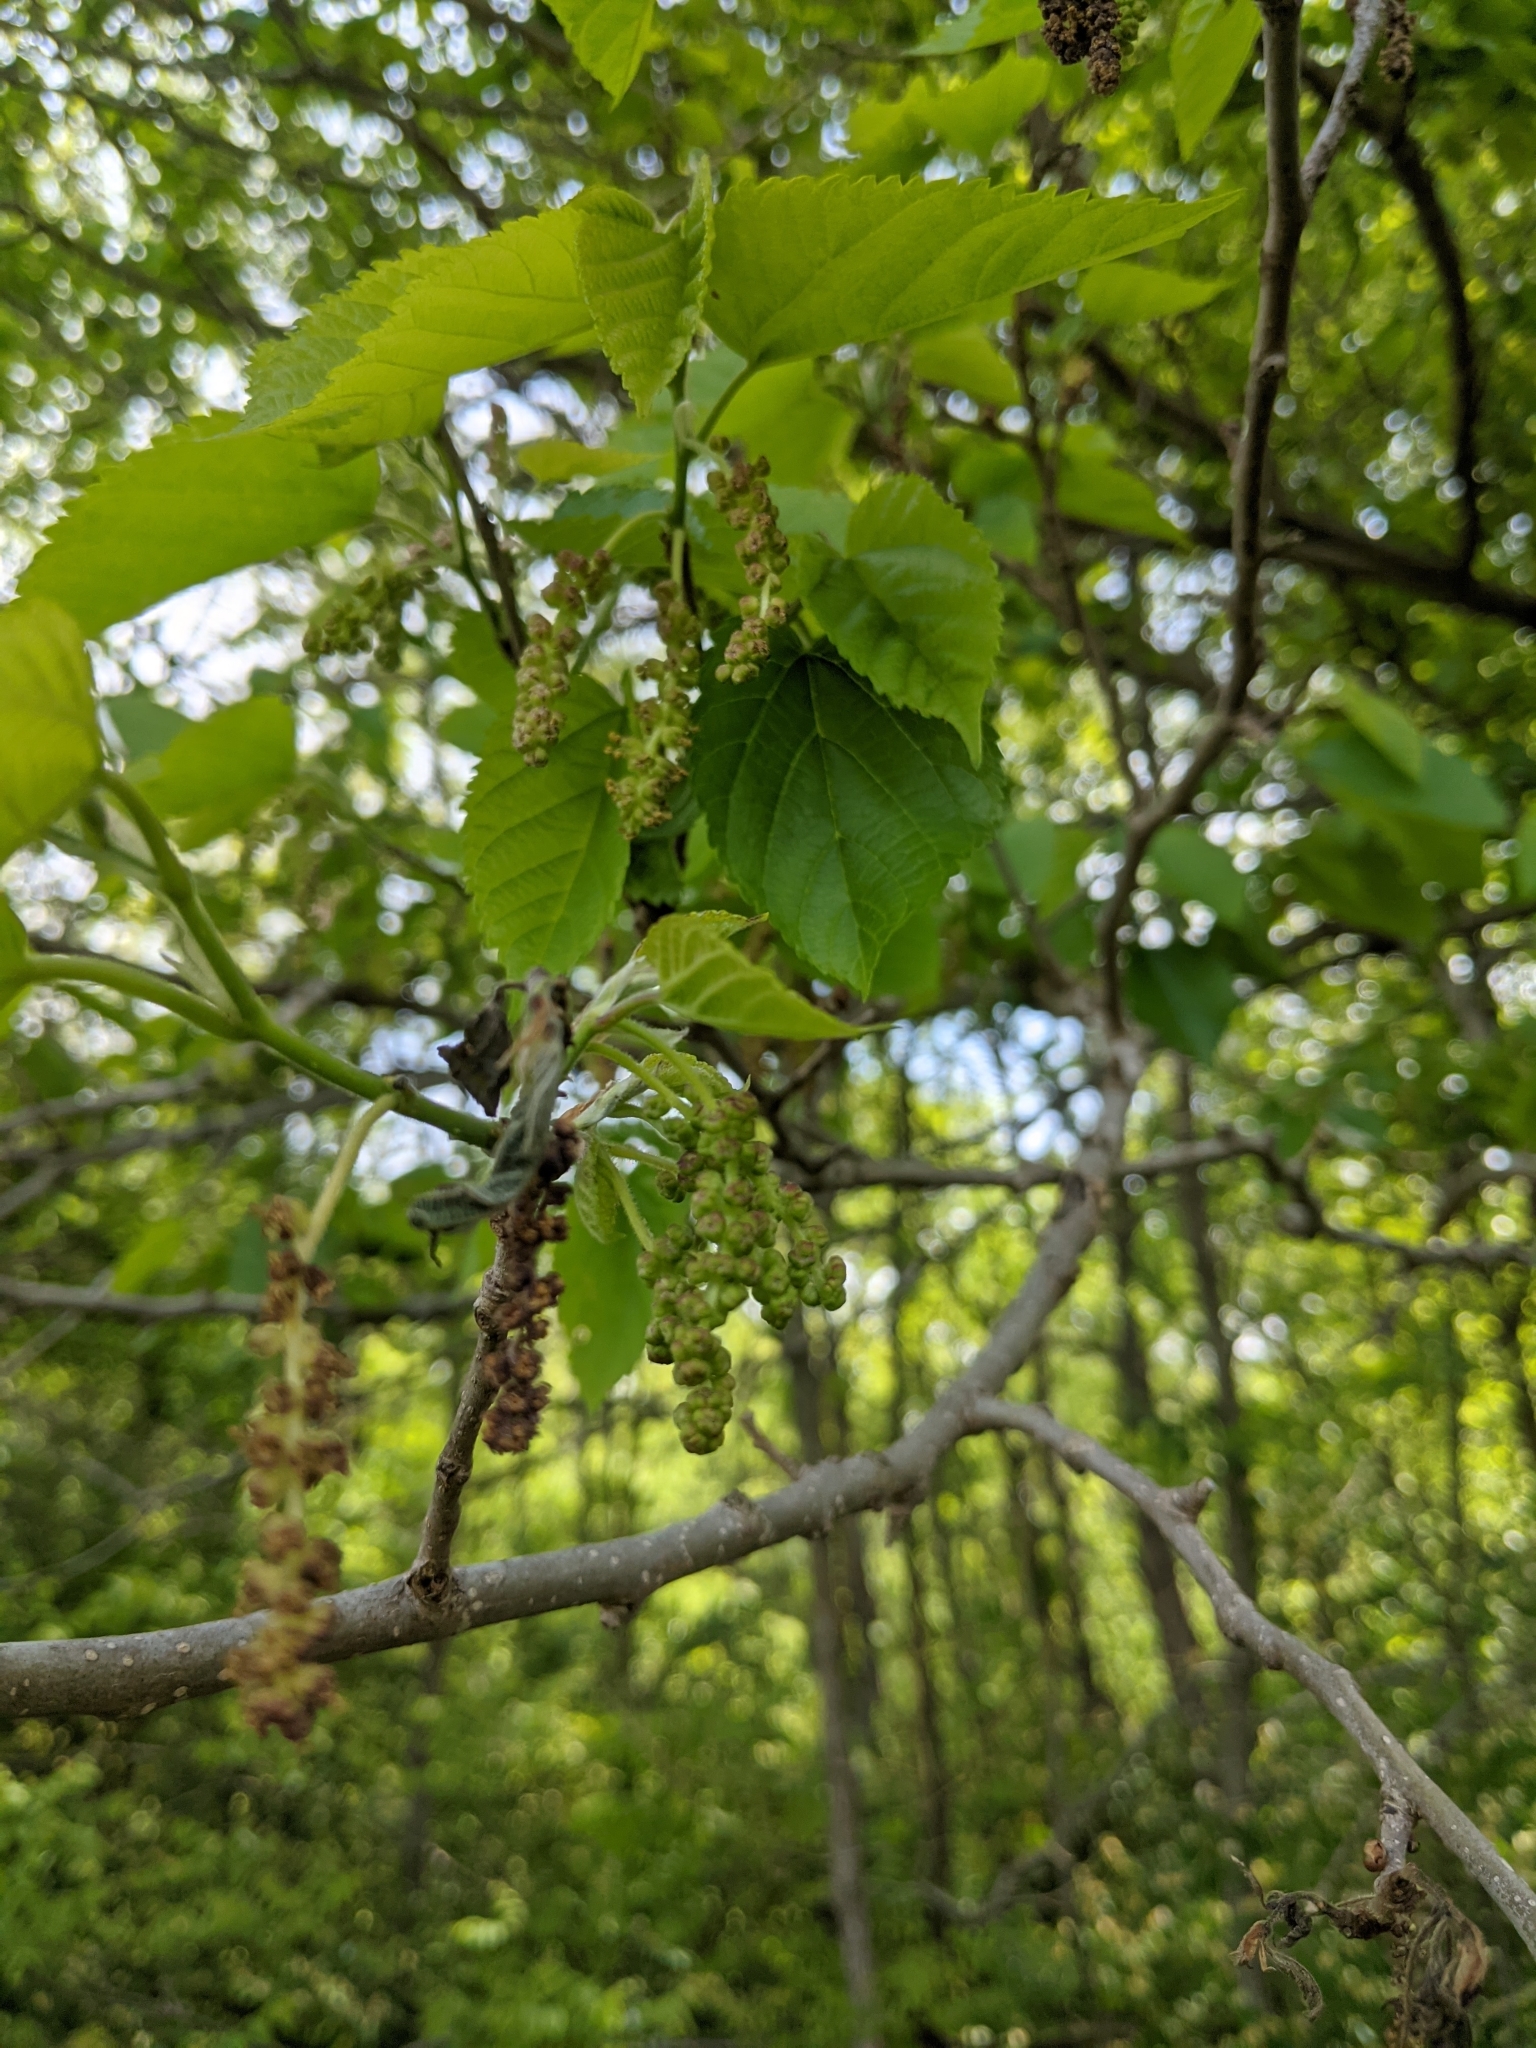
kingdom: Plantae
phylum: Tracheophyta
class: Magnoliopsida
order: Rosales
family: Moraceae
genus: Morus
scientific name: Morus alba
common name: White mulberry
